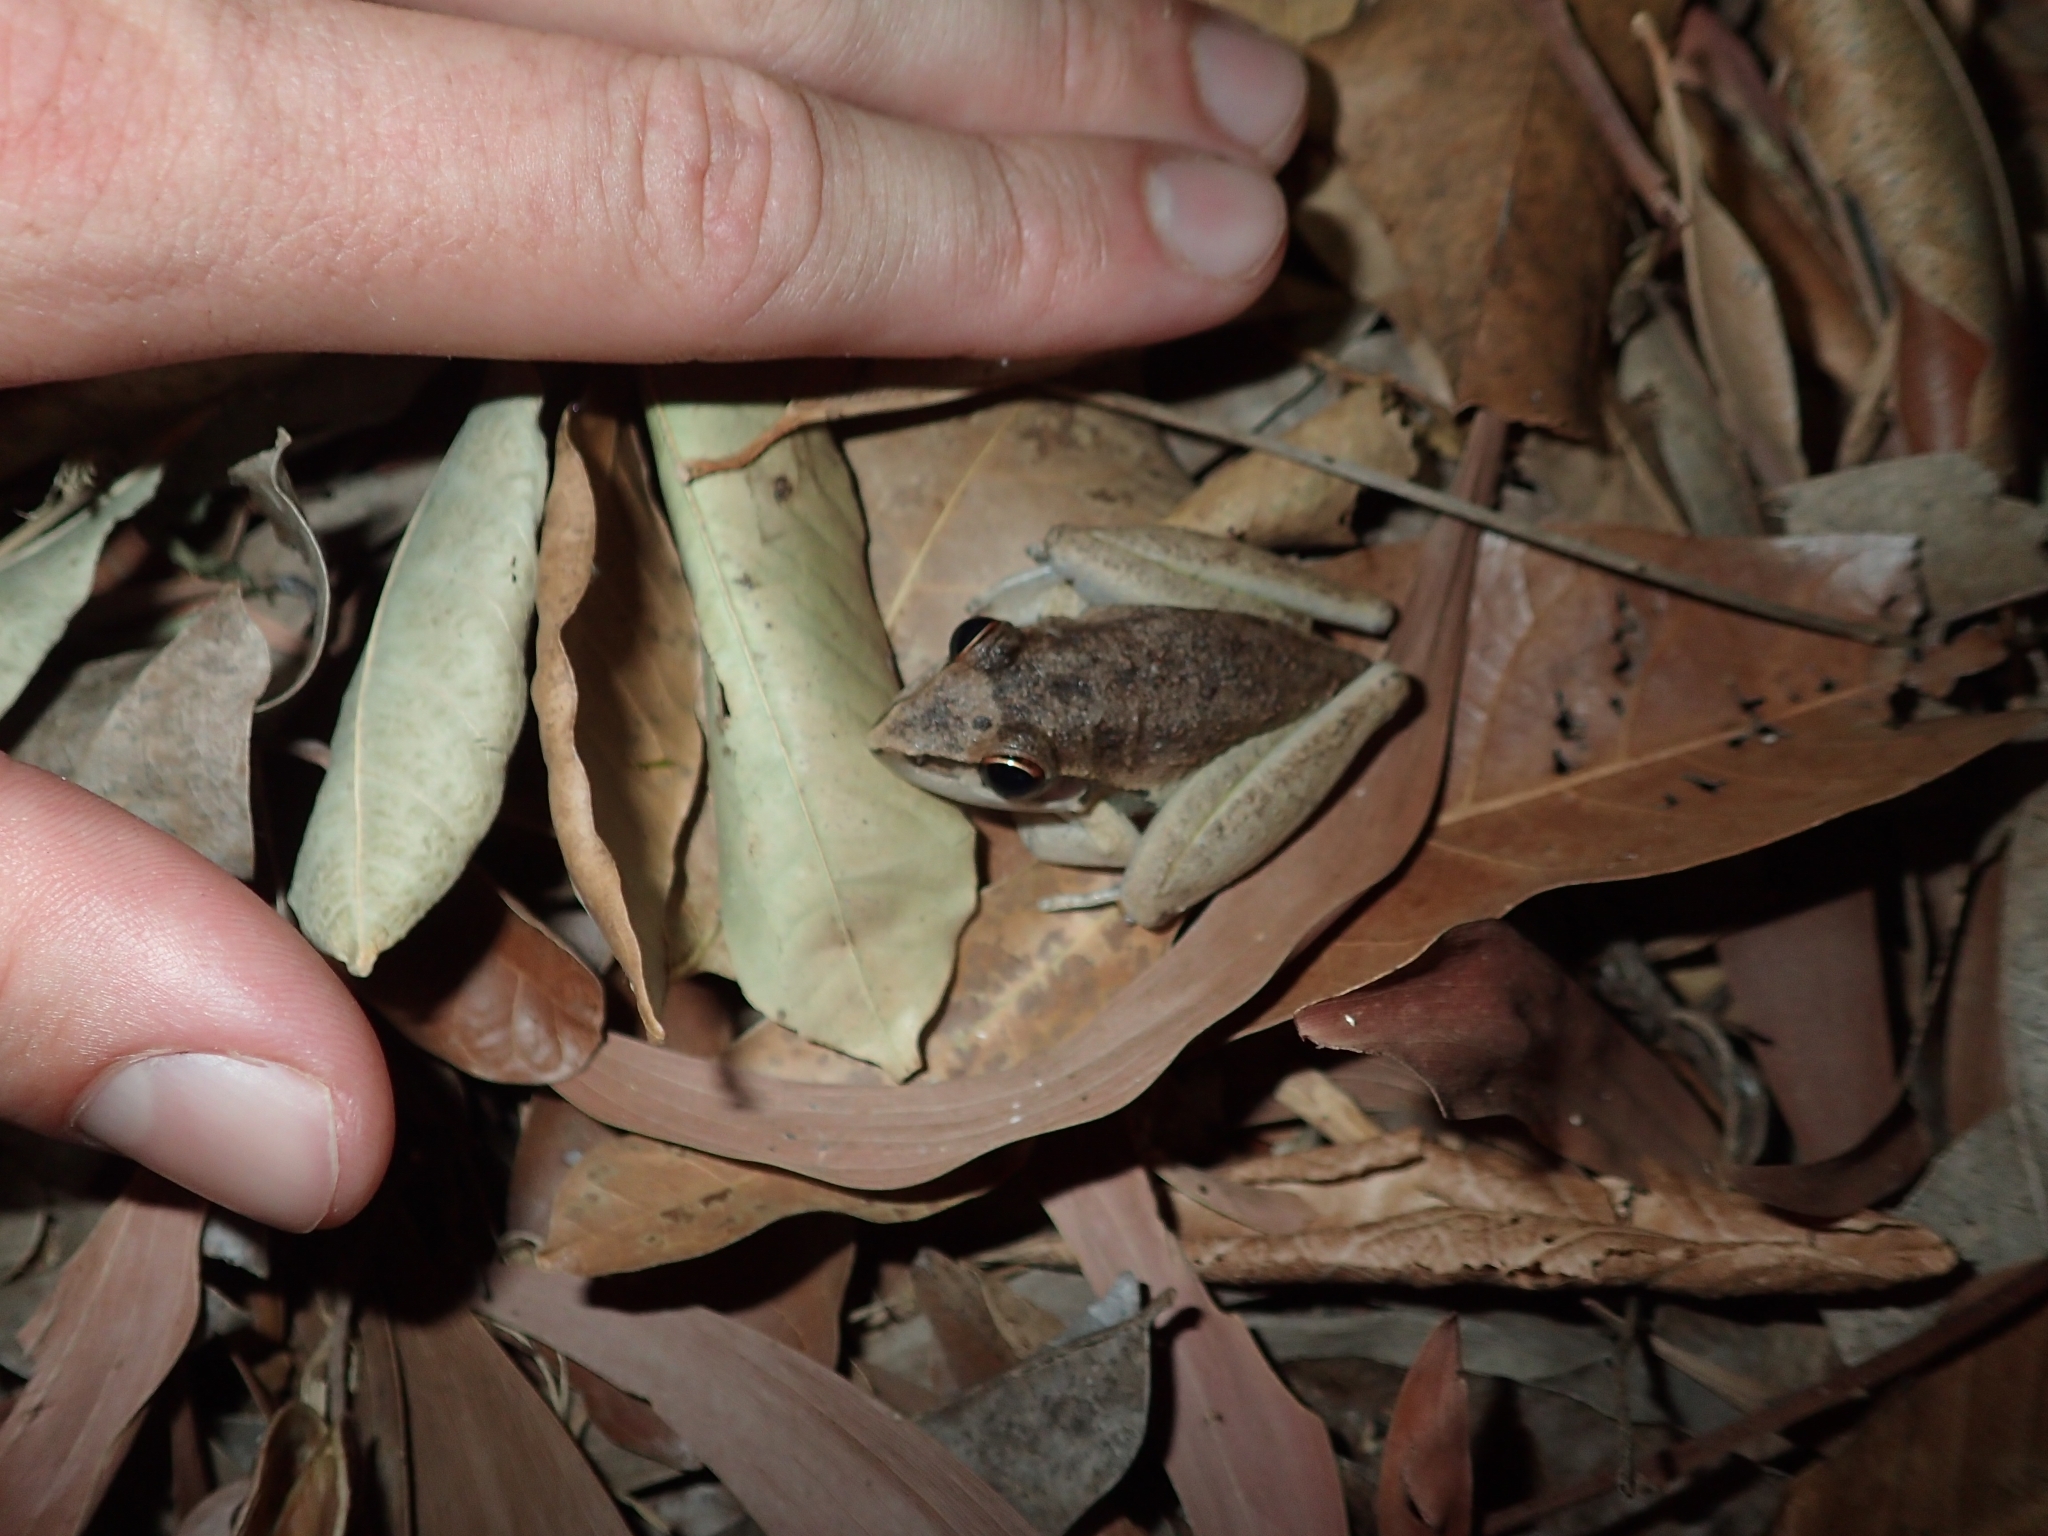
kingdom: Animalia
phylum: Chordata
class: Amphibia
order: Anura
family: Pelodryadidae
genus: Litoria
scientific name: Litoria watjulumensis
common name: Wotjulum frog
